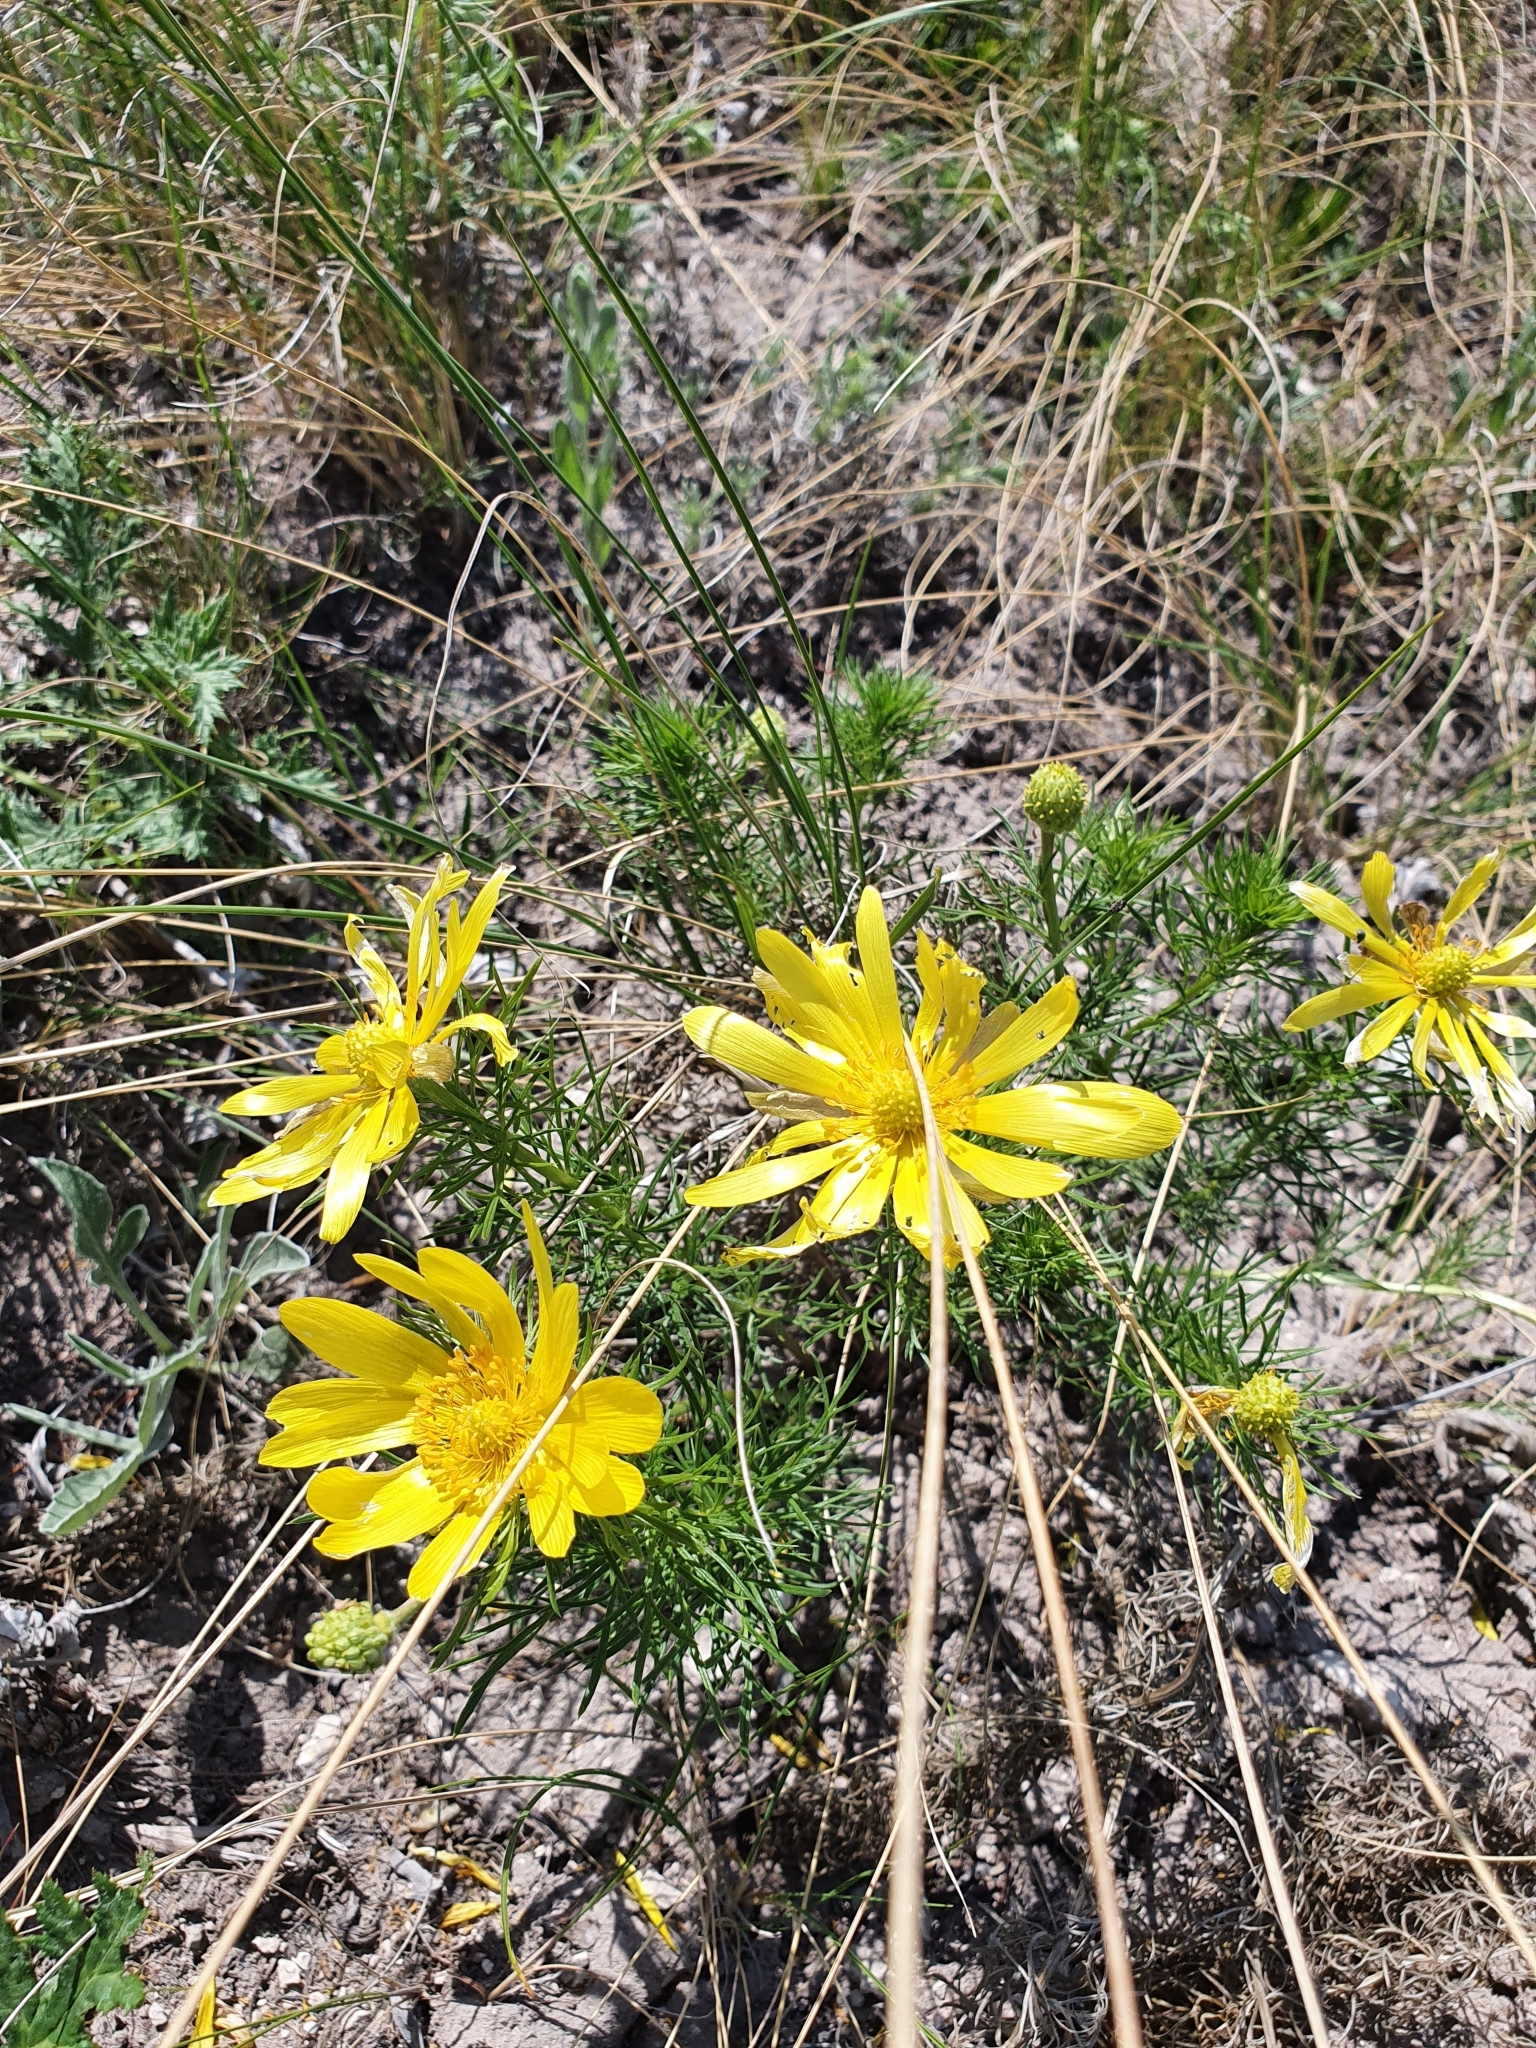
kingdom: Plantae
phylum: Tracheophyta
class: Magnoliopsida
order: Ranunculales
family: Ranunculaceae
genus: Adonis
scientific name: Adonis vernalis
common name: Yellow pheasants-eye
